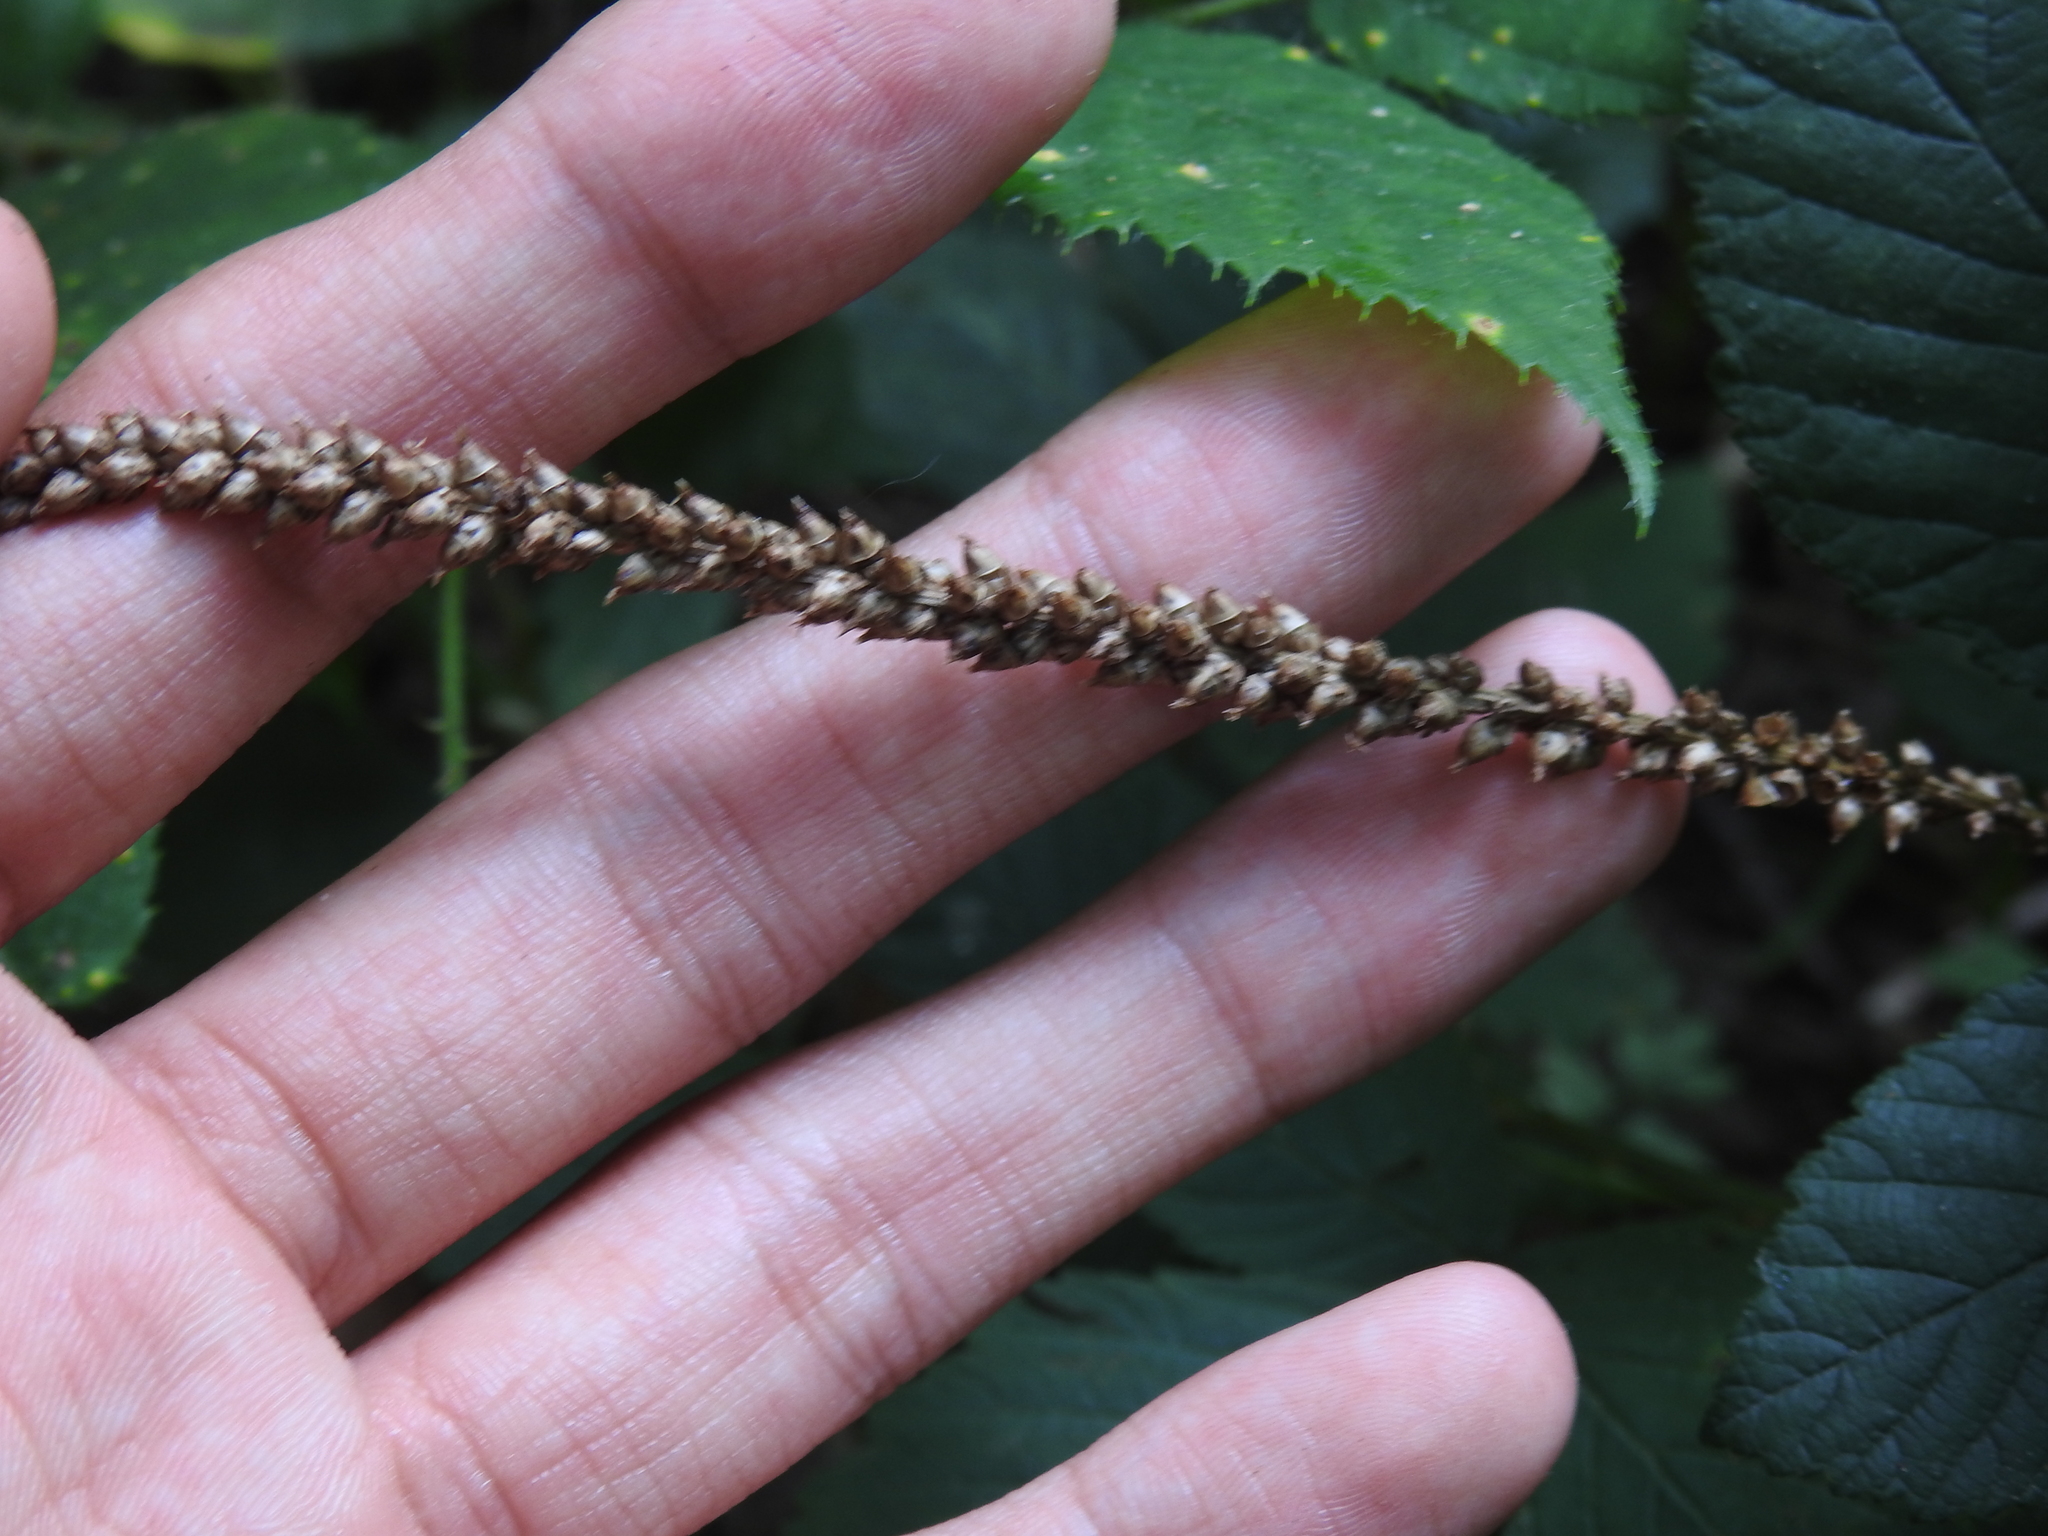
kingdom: Plantae
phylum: Tracheophyta
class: Magnoliopsida
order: Lamiales
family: Plantaginaceae
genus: Plantago
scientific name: Plantago major
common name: Common plantain
